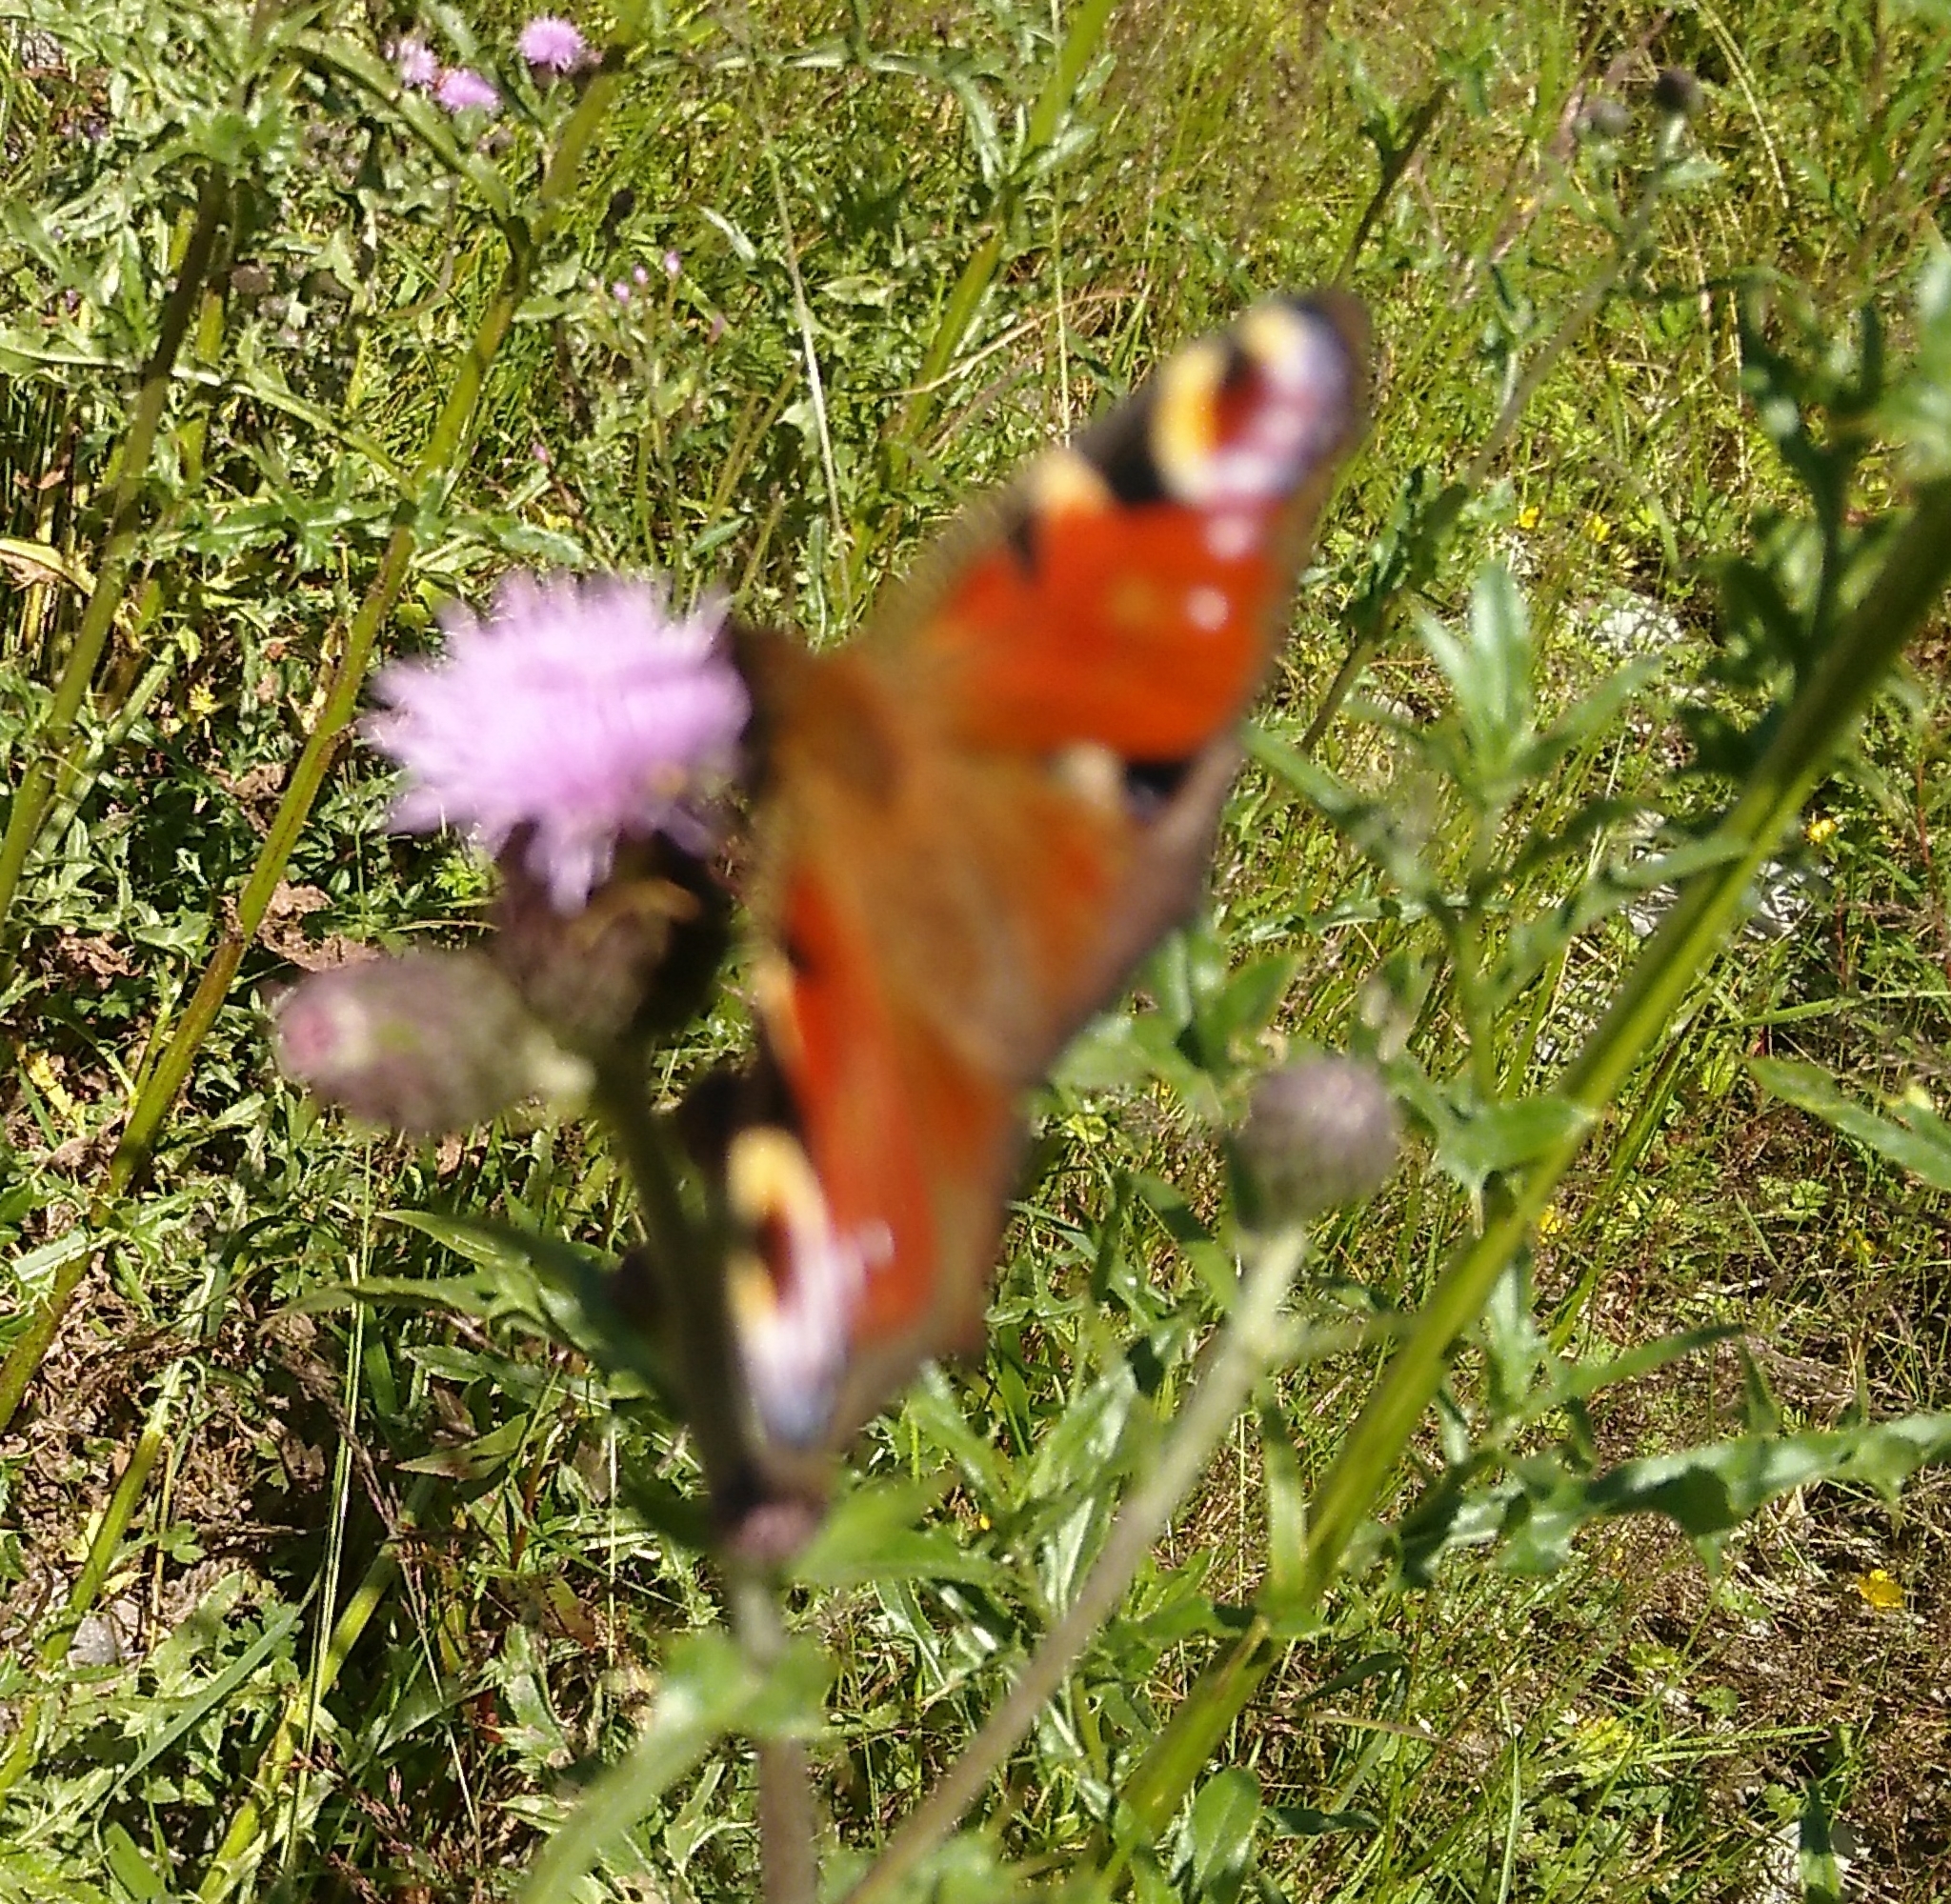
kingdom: Animalia
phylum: Arthropoda
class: Insecta
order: Lepidoptera
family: Nymphalidae
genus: Aglais
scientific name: Aglais io
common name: Peacock
